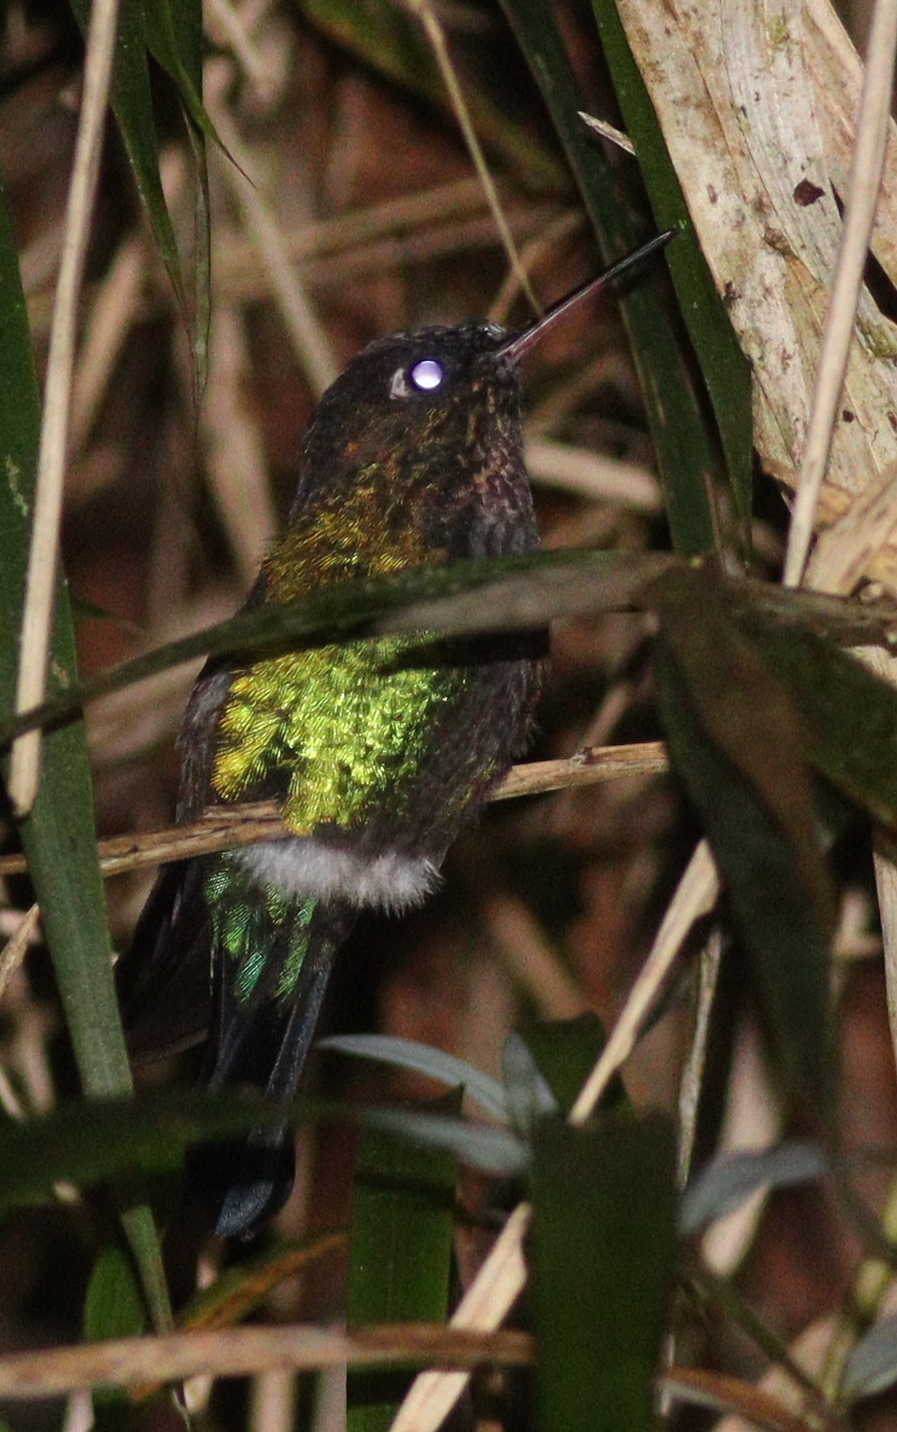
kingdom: Animalia
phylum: Chordata
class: Aves
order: Apodiformes
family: Trochilidae
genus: Panterpe
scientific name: Panterpe insignis
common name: Fiery-throated hummingbird
